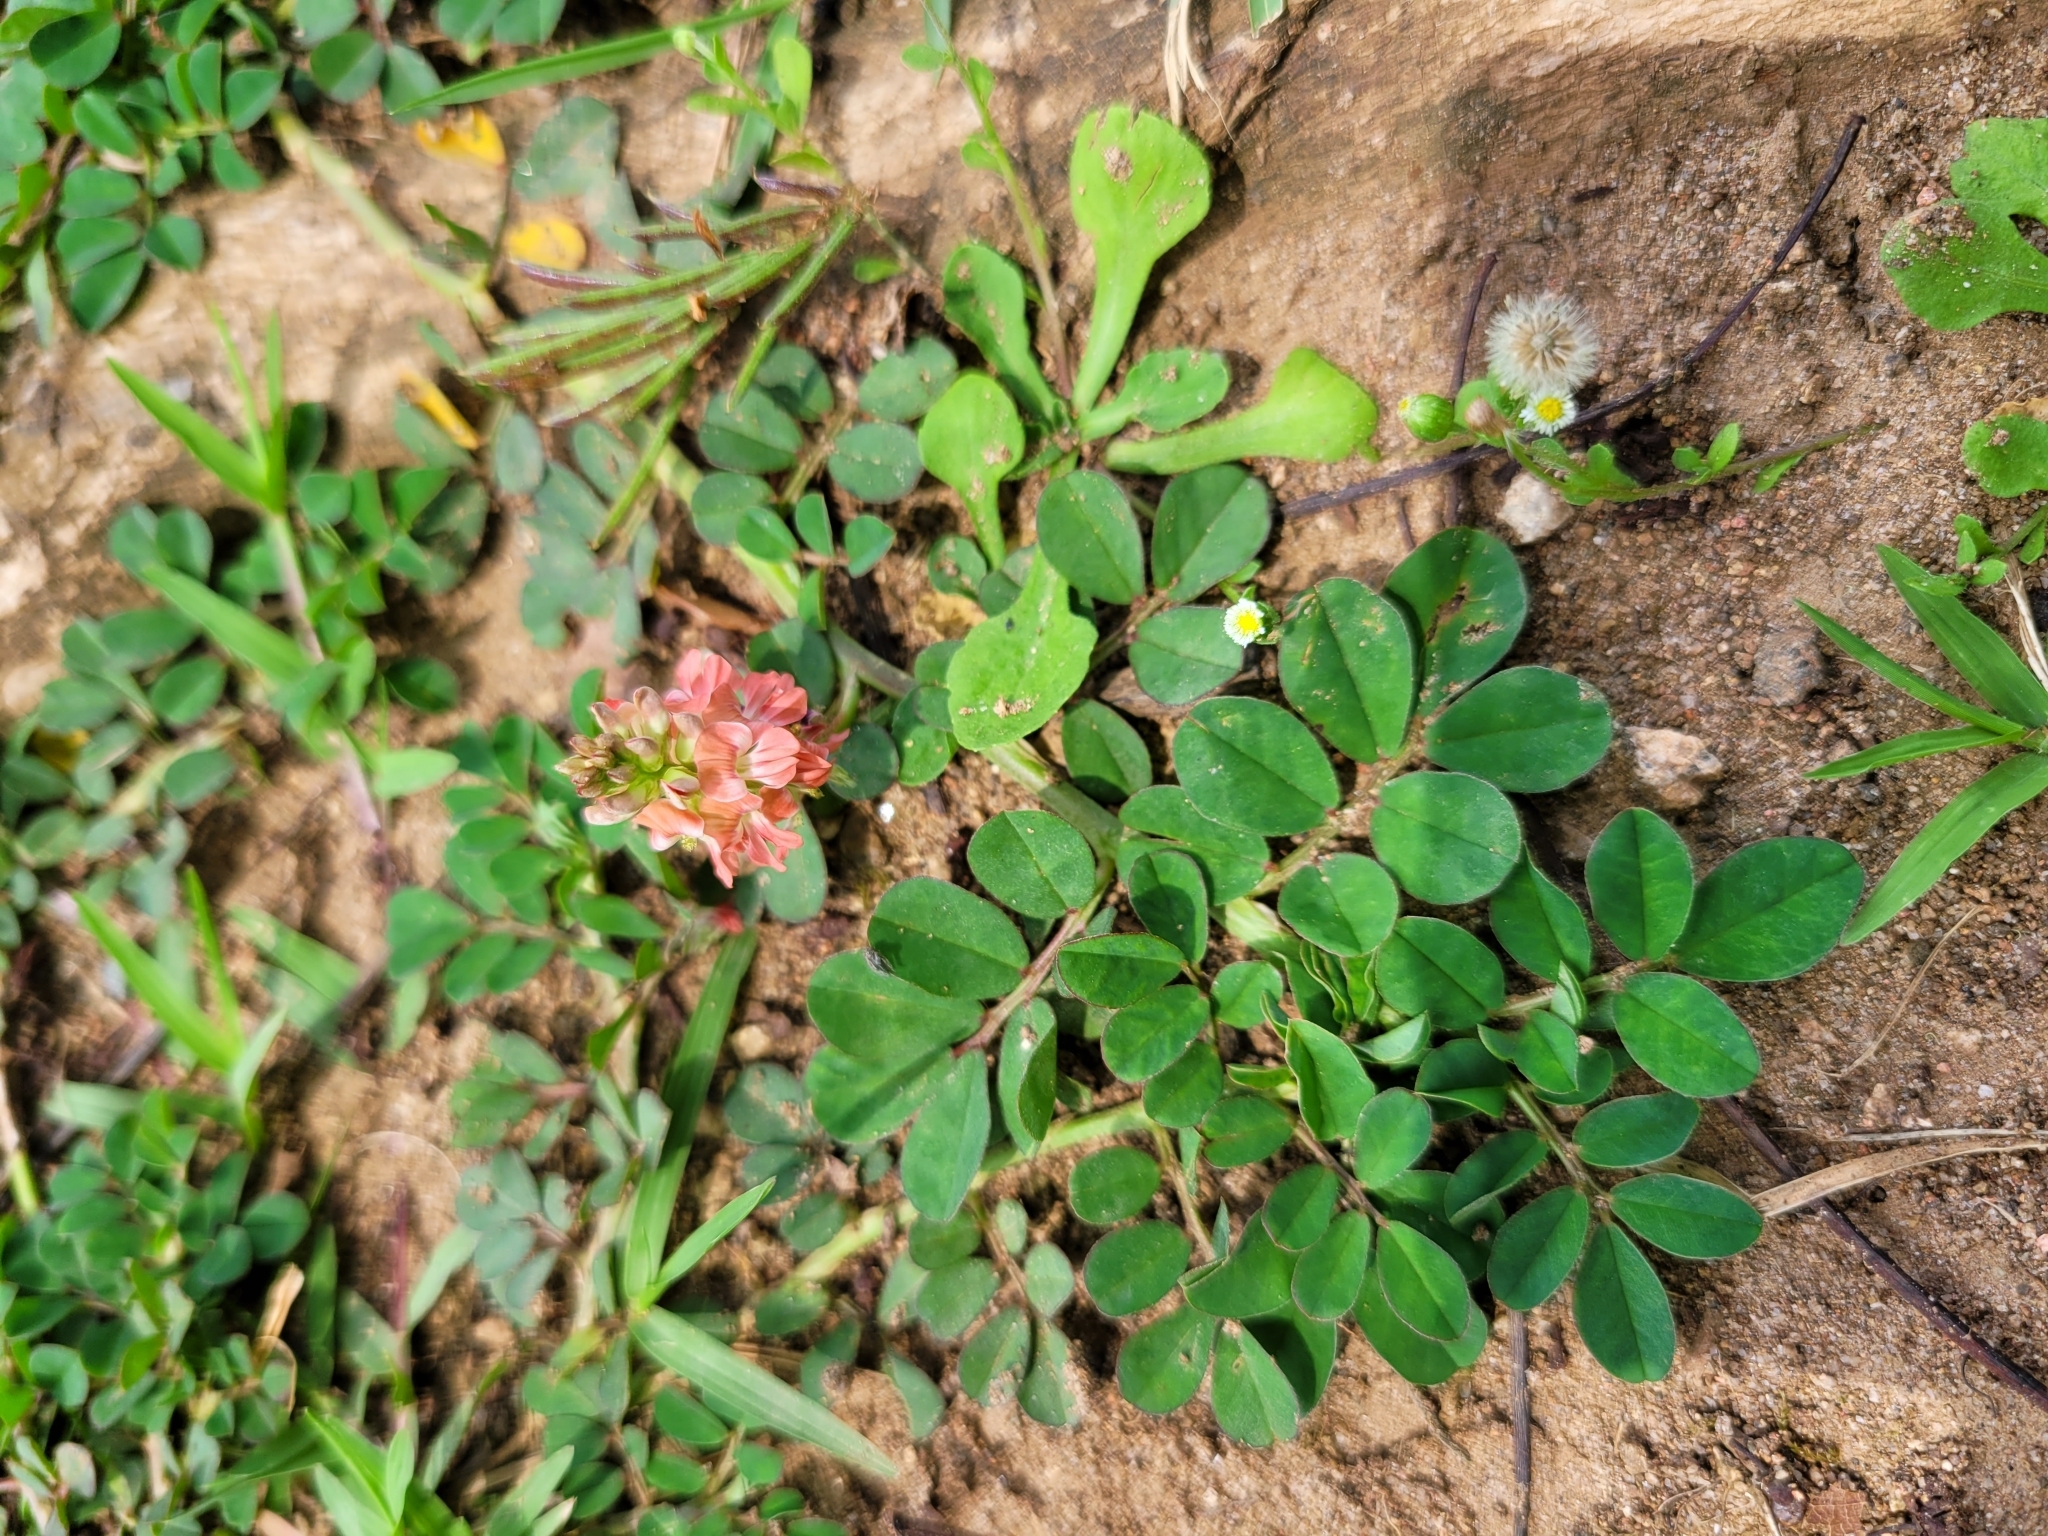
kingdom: Plantae
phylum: Tracheophyta
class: Magnoliopsida
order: Fabales
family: Fabaceae
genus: Indigofera
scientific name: Indigofera spicata
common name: Creeping indigo
